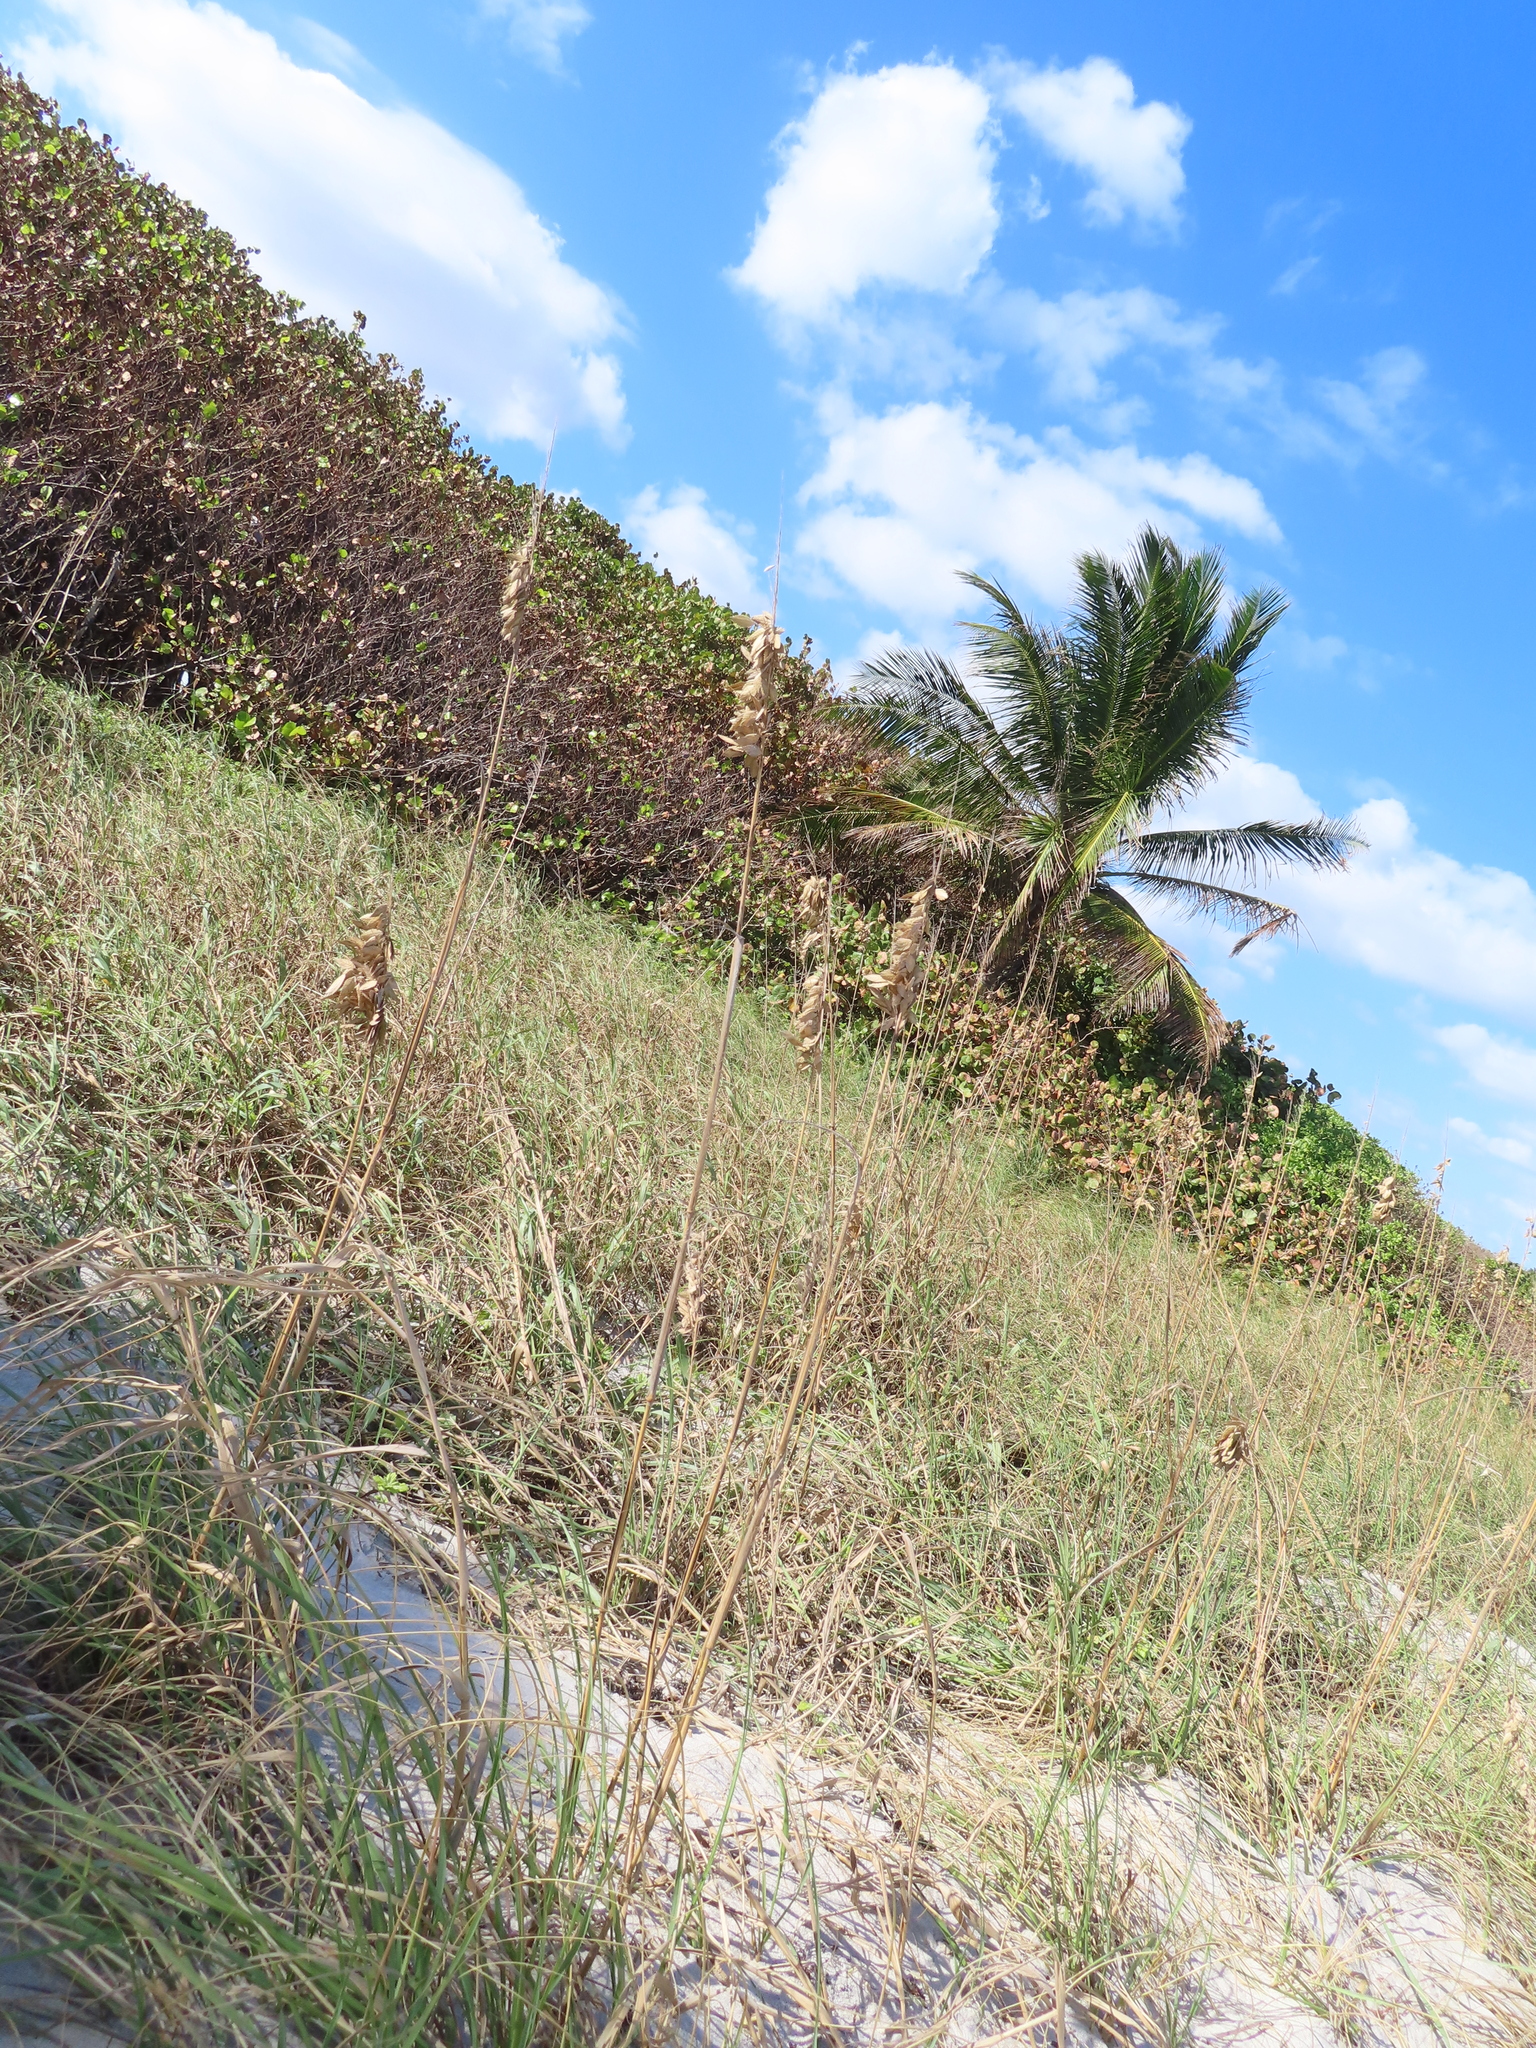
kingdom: Plantae
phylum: Tracheophyta
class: Liliopsida
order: Poales
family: Poaceae
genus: Uniola
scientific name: Uniola paniculata
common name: Seaside-oats
